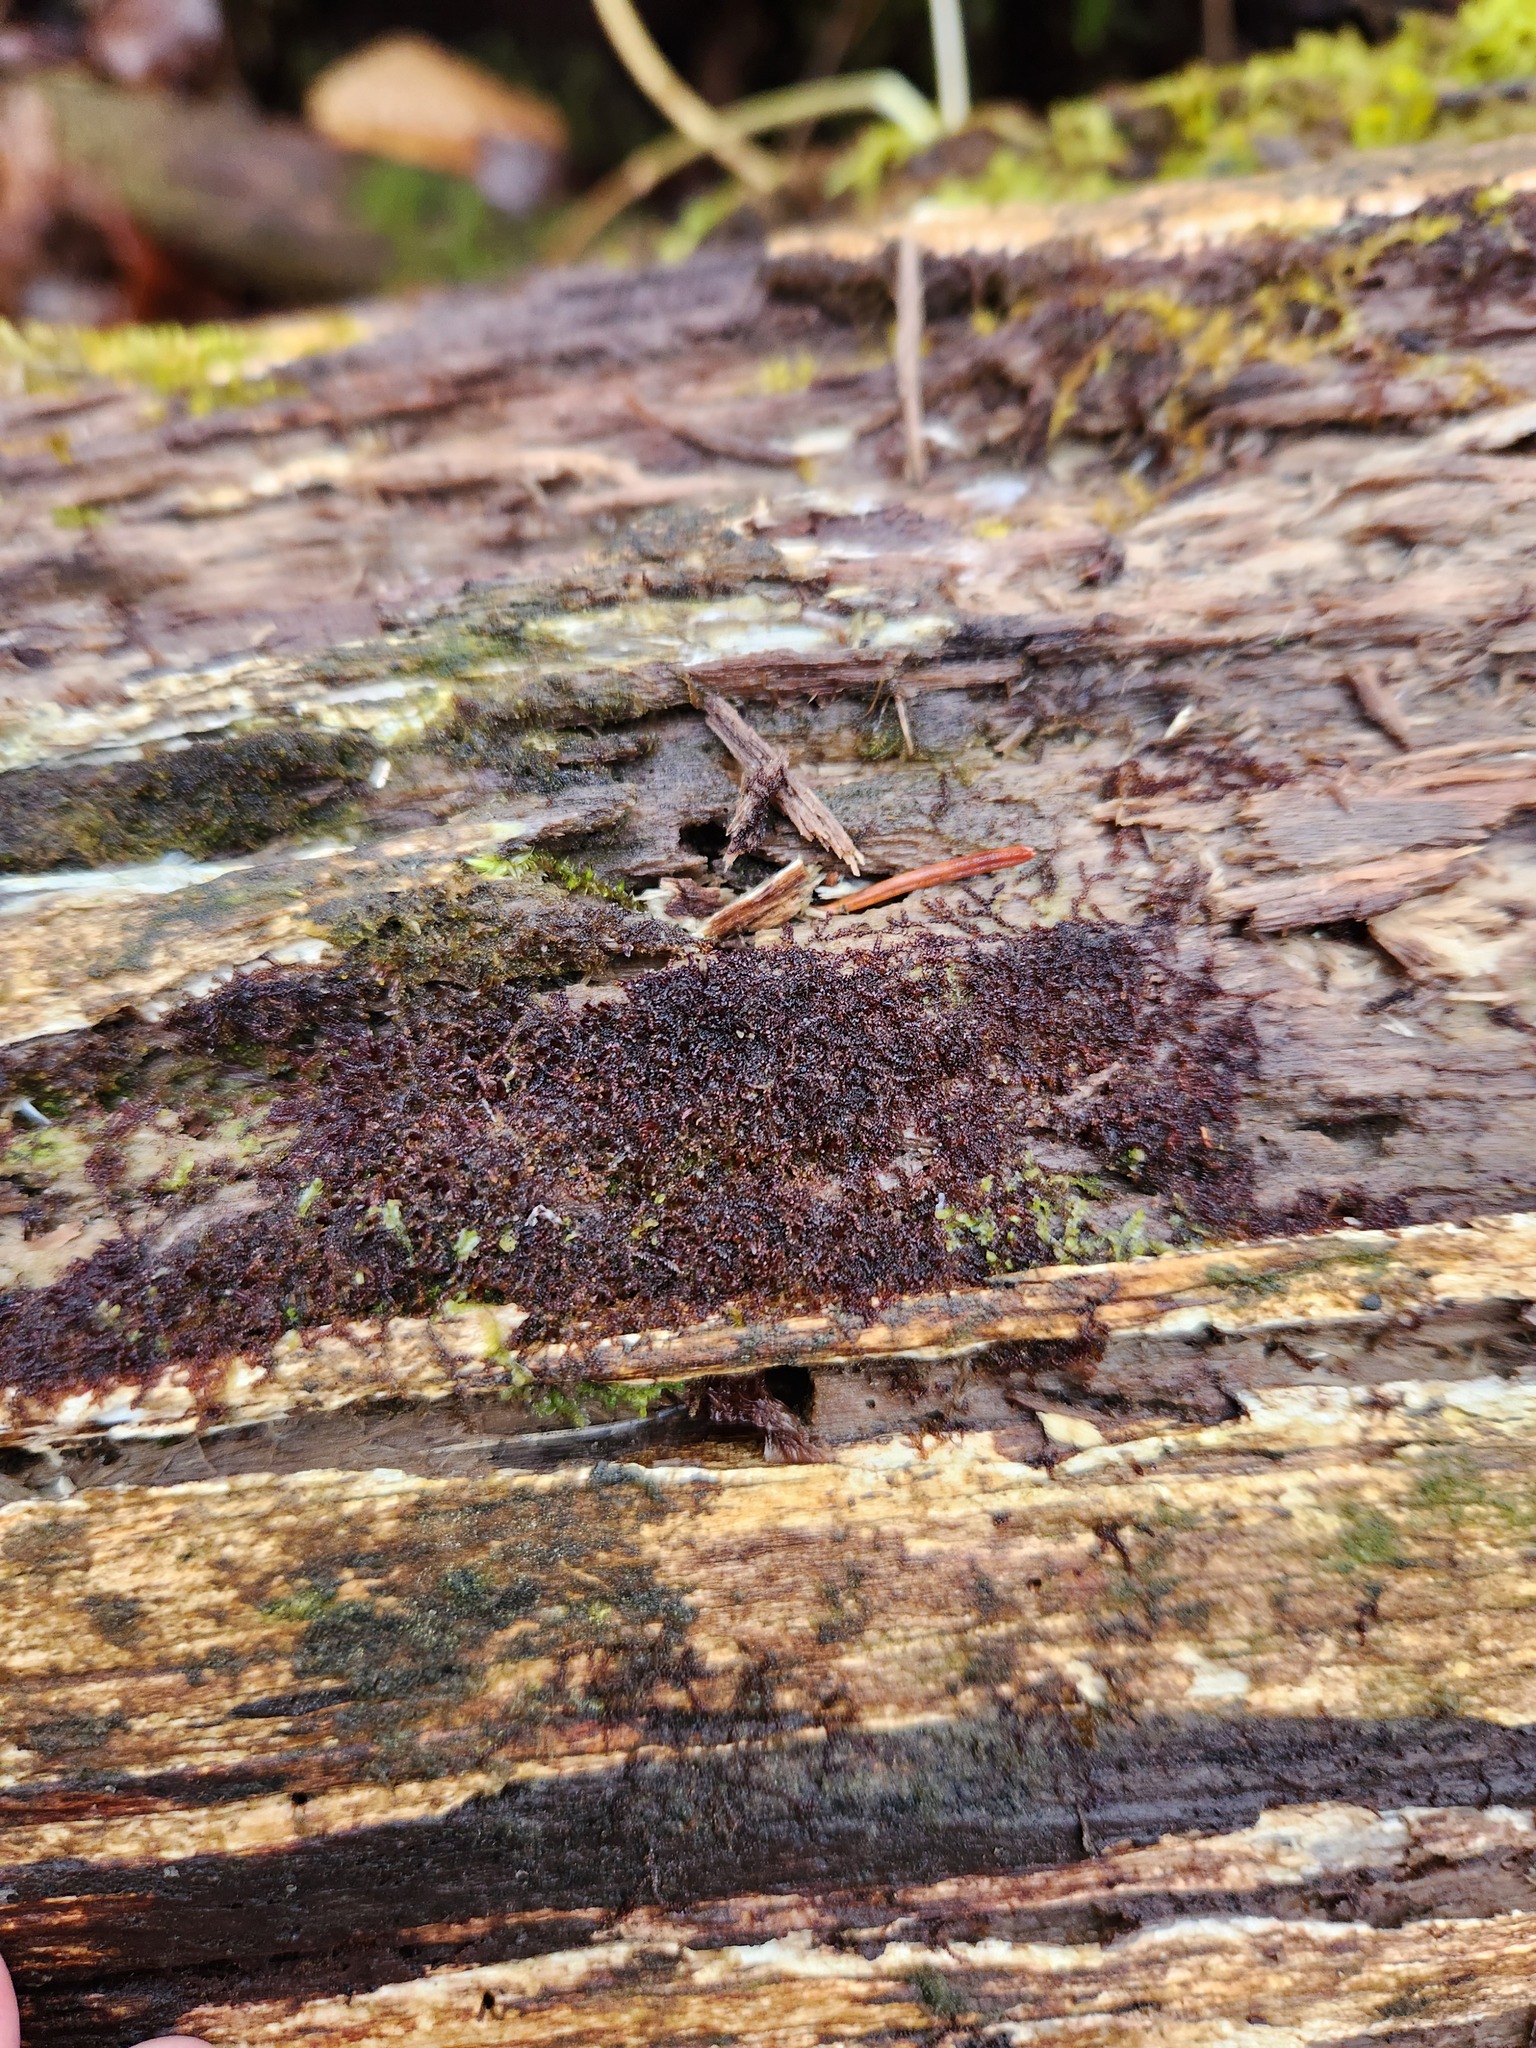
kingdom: Plantae
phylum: Marchantiophyta
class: Jungermanniopsida
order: Jungermanniales
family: Cephaloziaceae
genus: Nowellia
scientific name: Nowellia curvifolia
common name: Wood rustwort
